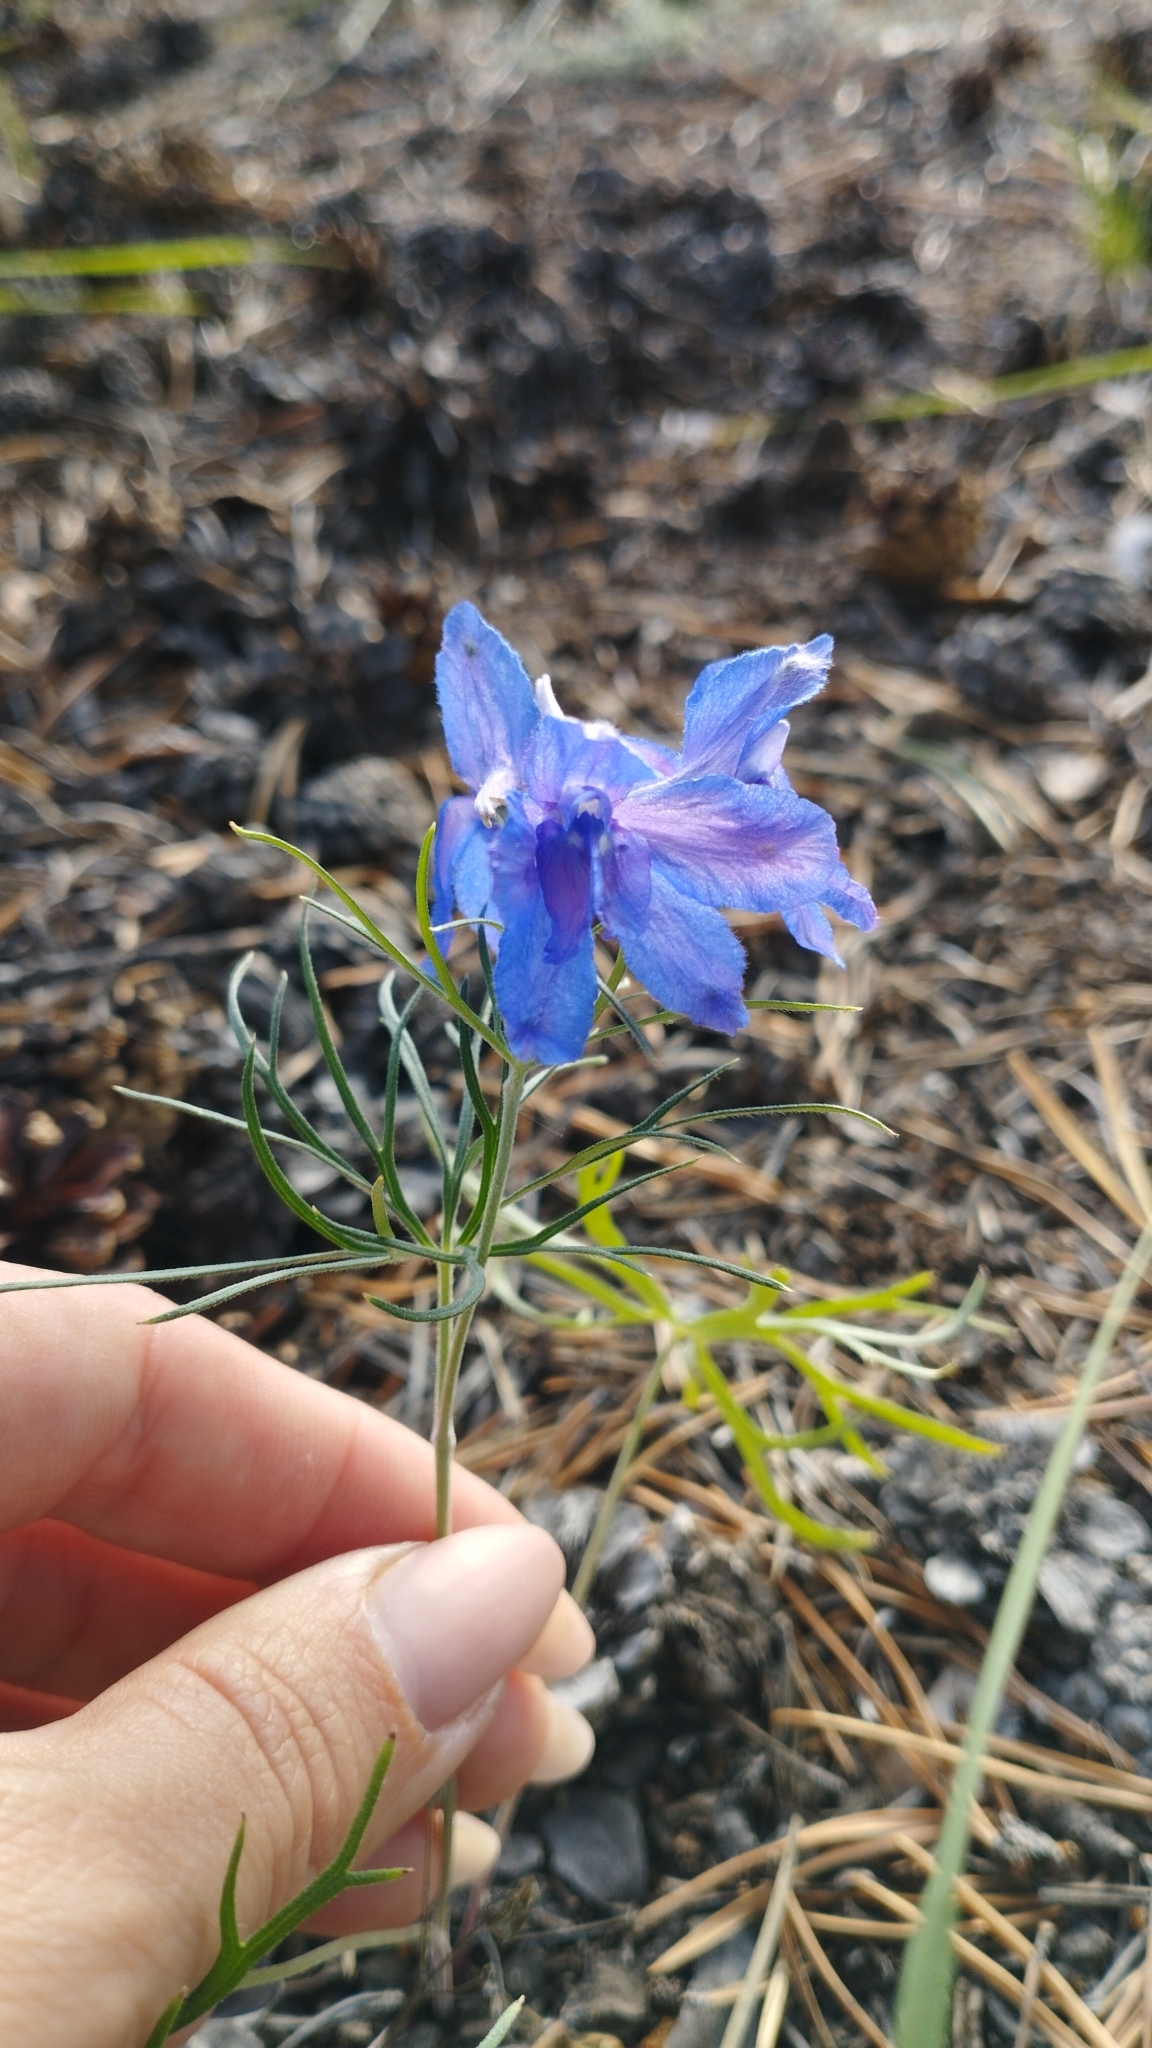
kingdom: Plantae
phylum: Tracheophyta
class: Magnoliopsida
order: Ranunculales
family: Ranunculaceae
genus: Delphinium
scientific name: Delphinium grandiflorum
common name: Siberian larkspur
